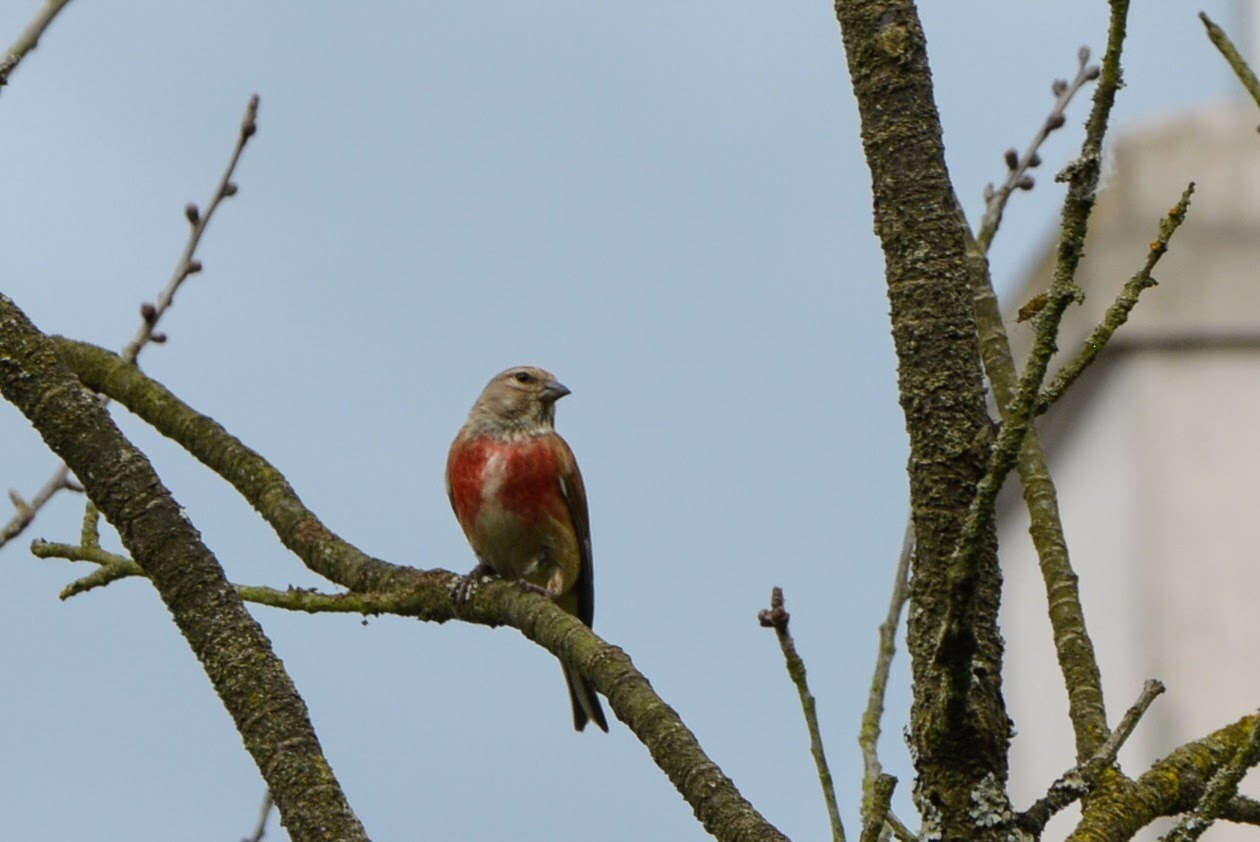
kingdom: Animalia
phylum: Chordata
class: Aves
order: Passeriformes
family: Fringillidae
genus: Linaria
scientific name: Linaria cannabina
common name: Common linnet
